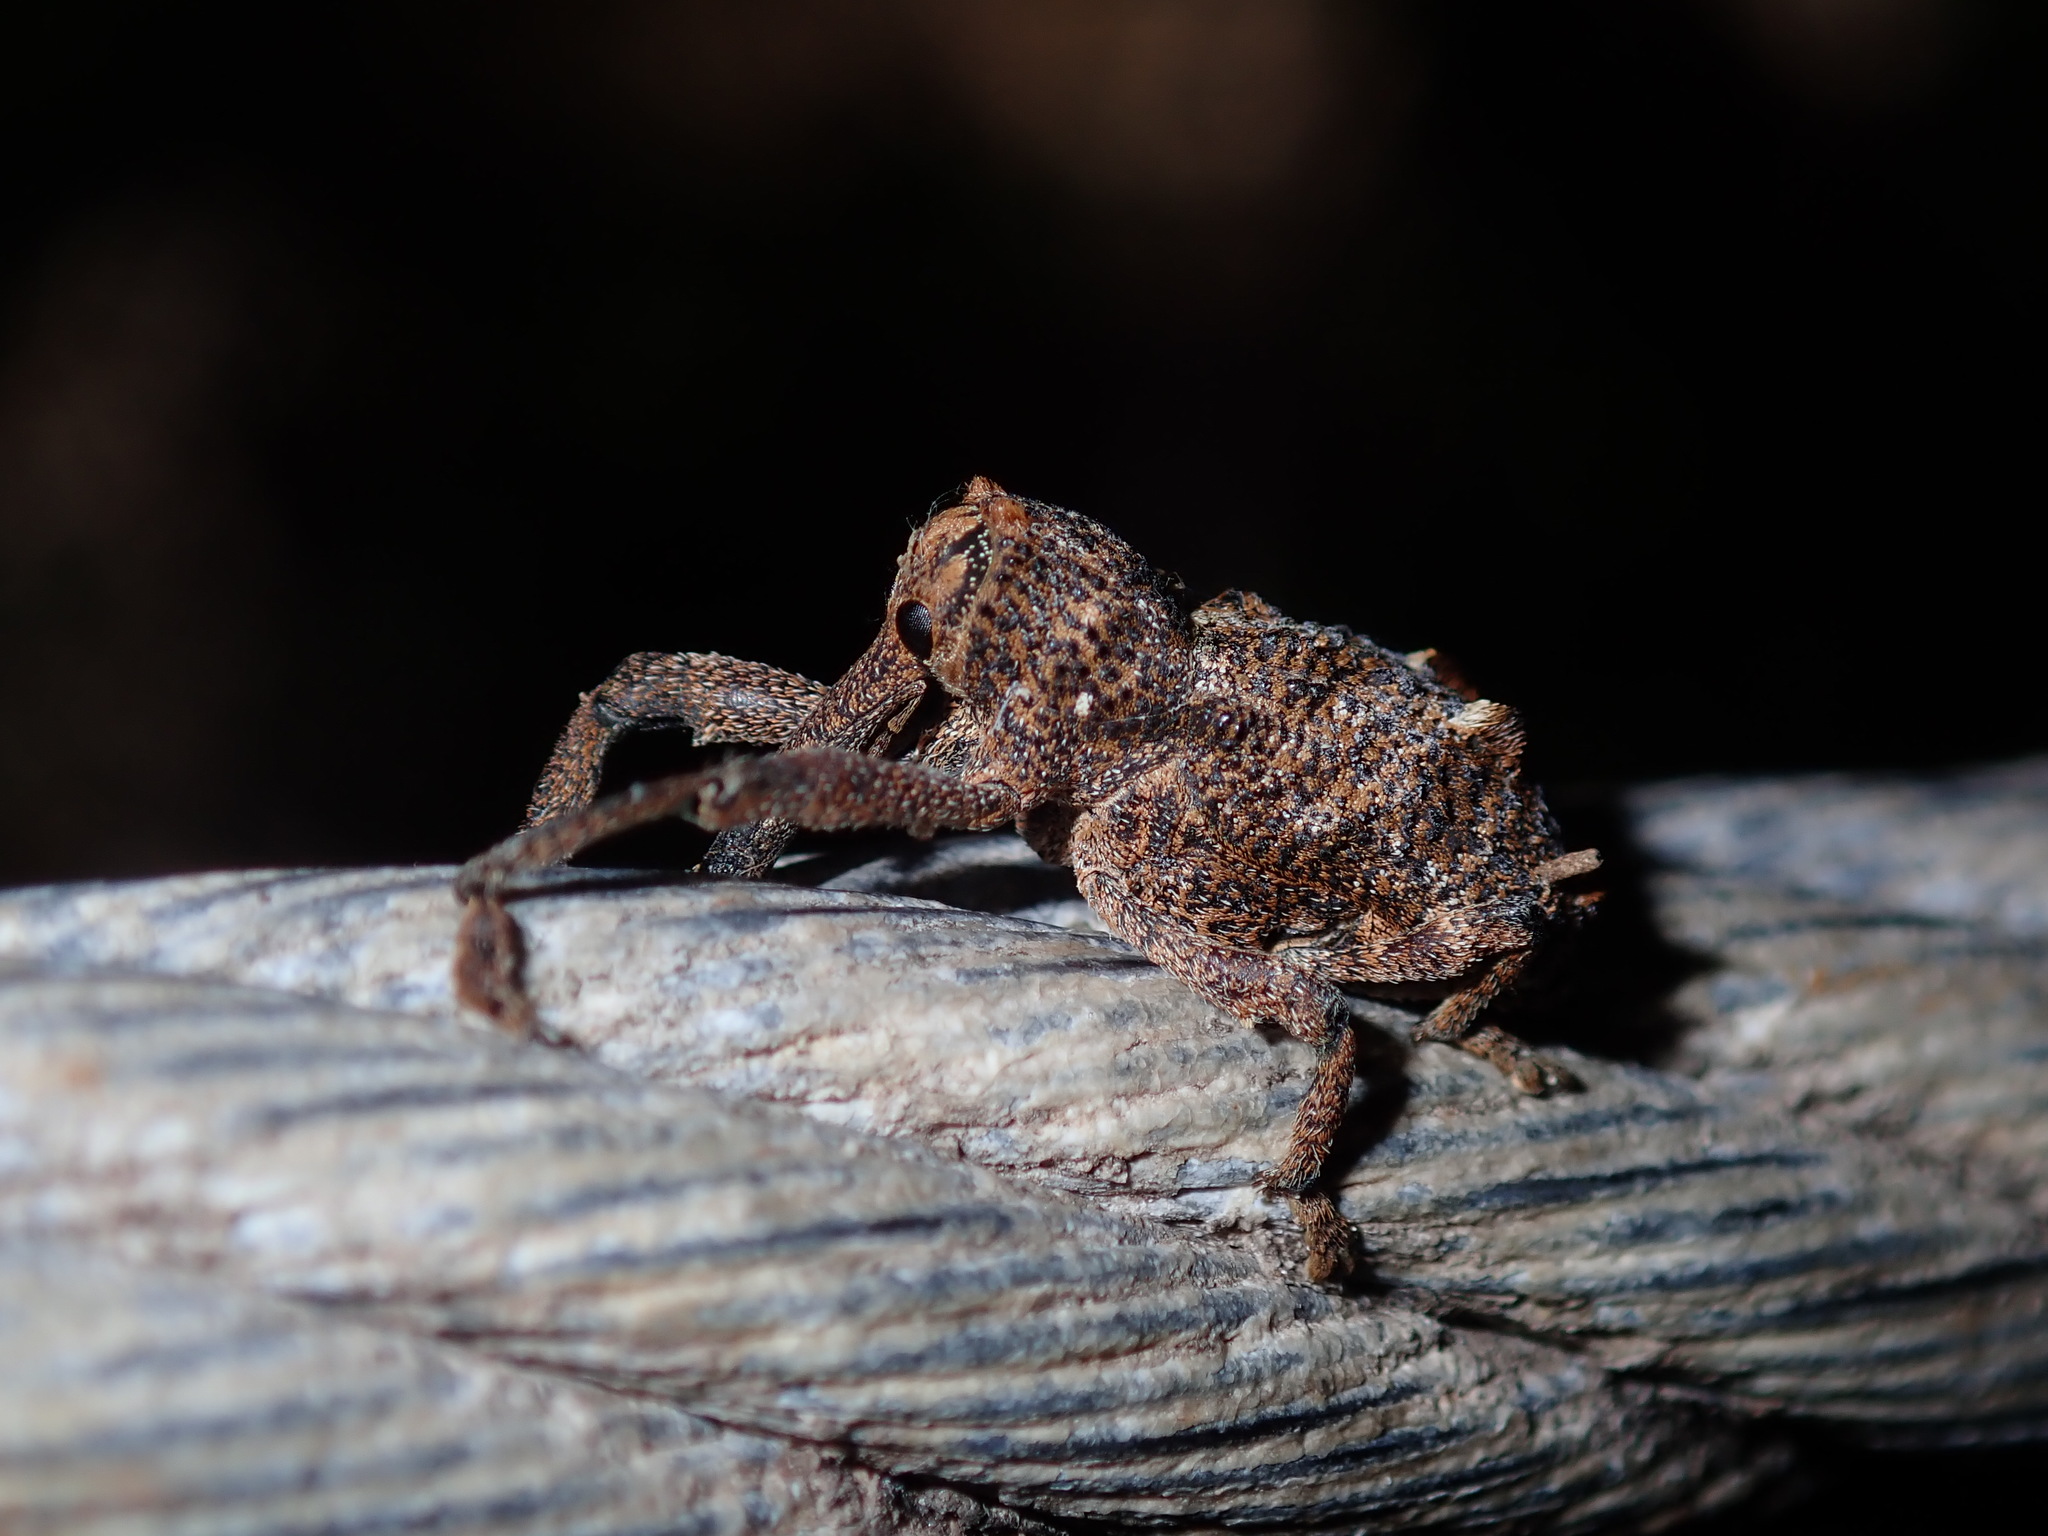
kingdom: Animalia
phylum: Arthropoda
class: Insecta
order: Coleoptera
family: Curculionidae
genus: Orthorhinus
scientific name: Orthorhinus cylindrirostris
